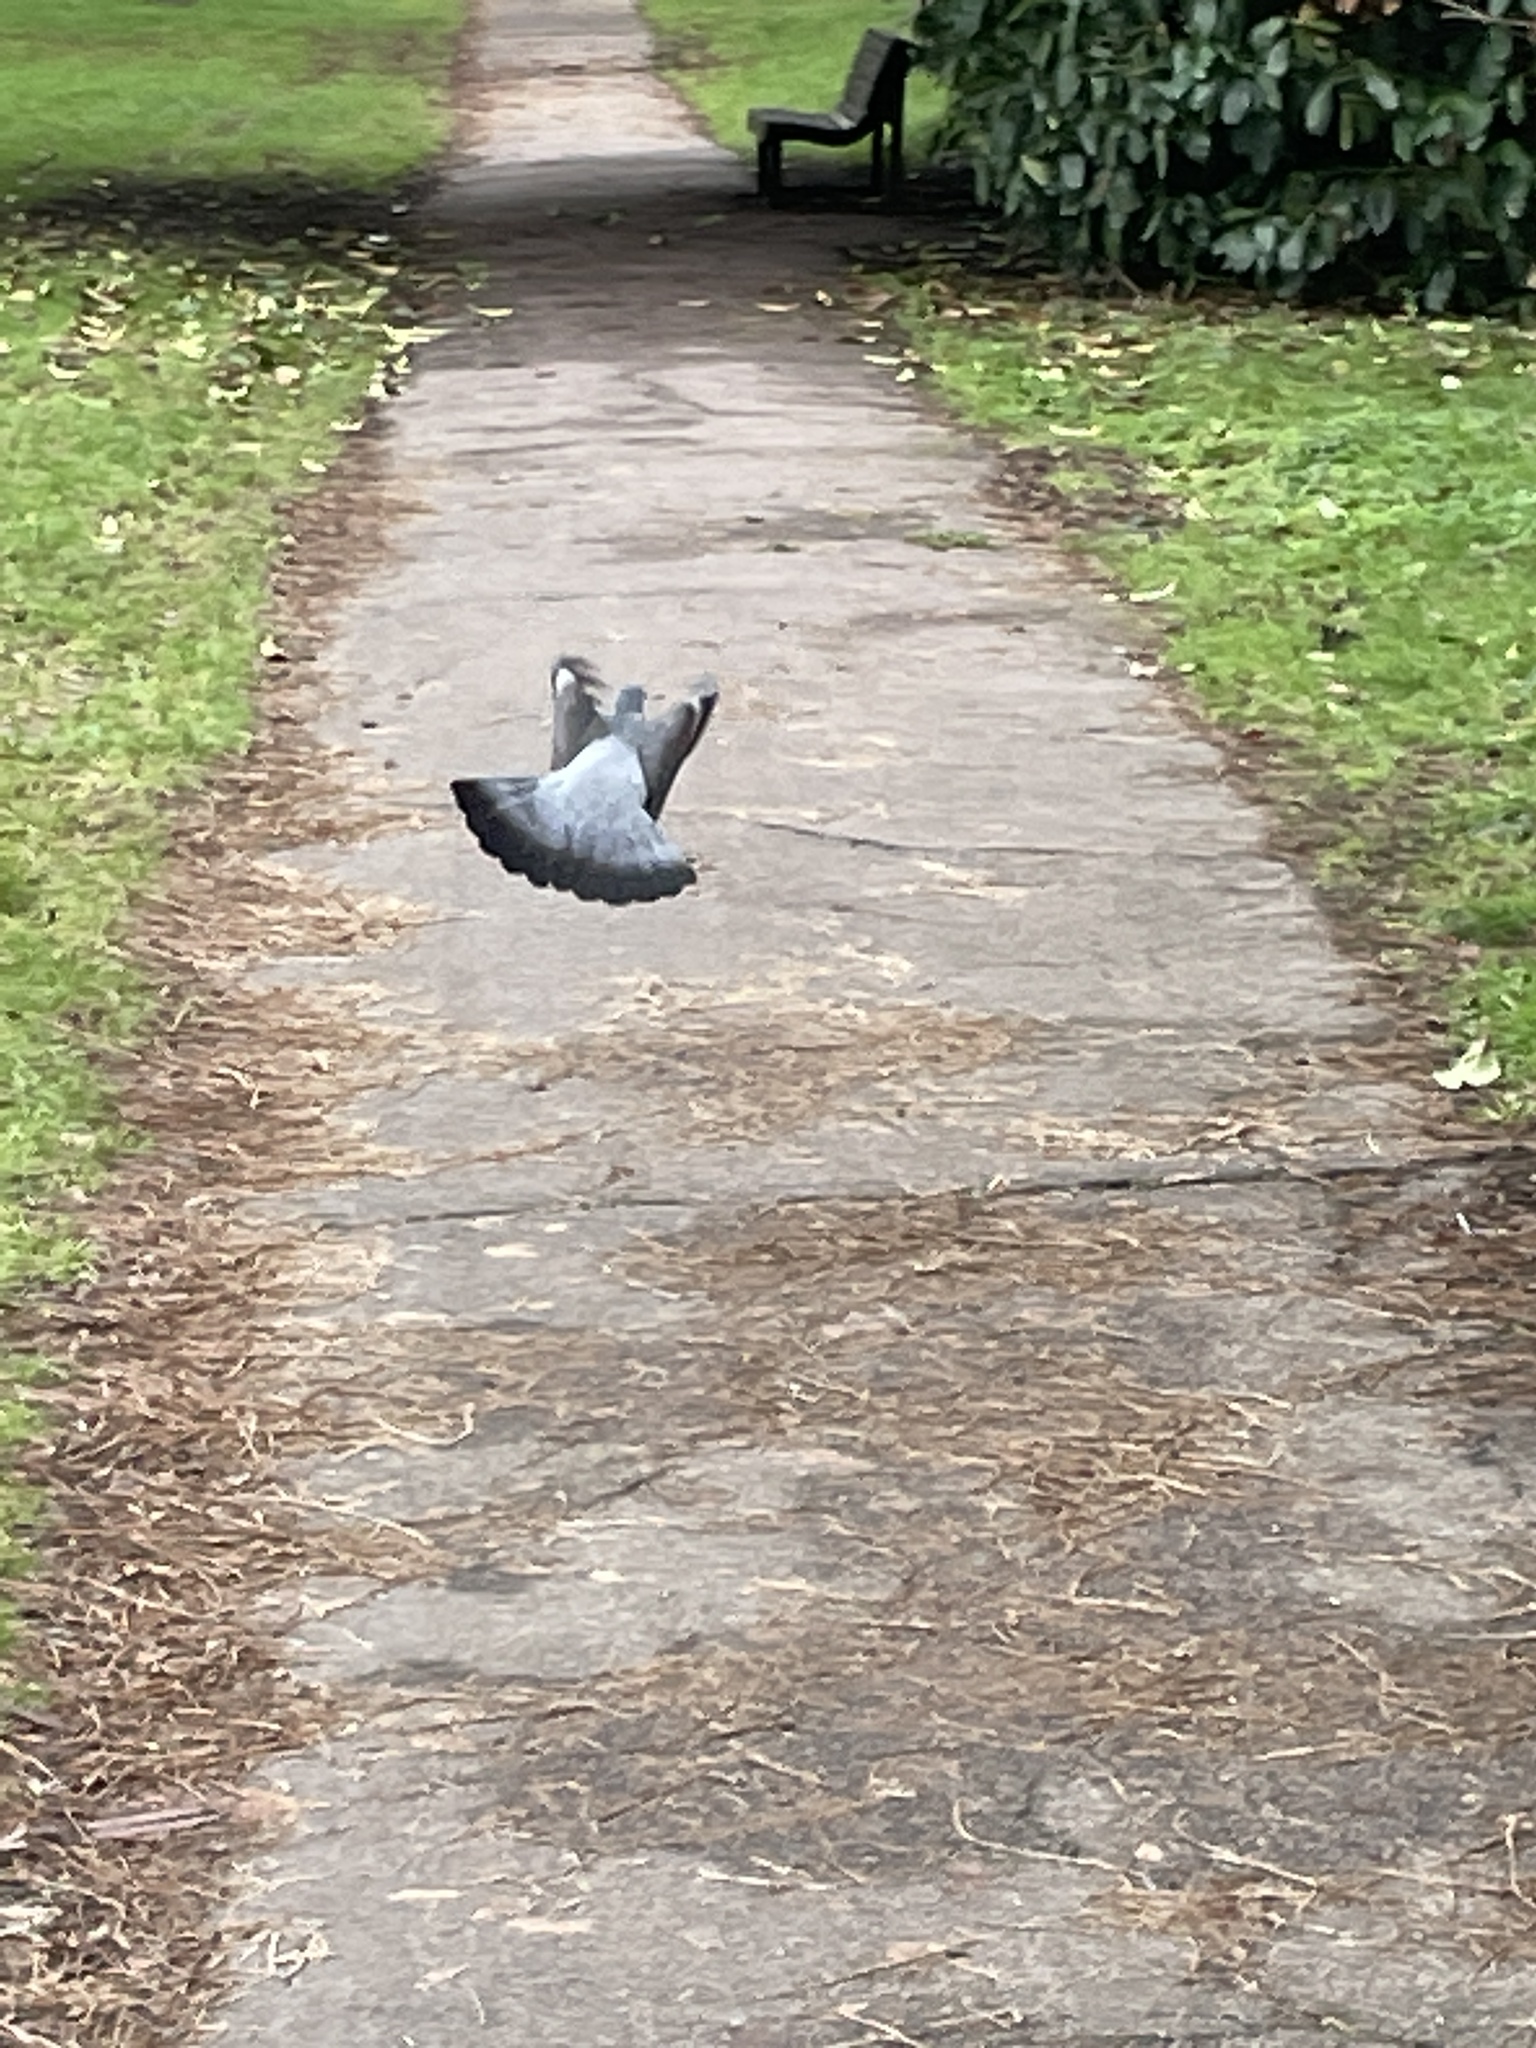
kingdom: Animalia
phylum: Chordata
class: Aves
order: Columbiformes
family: Columbidae
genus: Columba
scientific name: Columba palumbus
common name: Common wood pigeon
